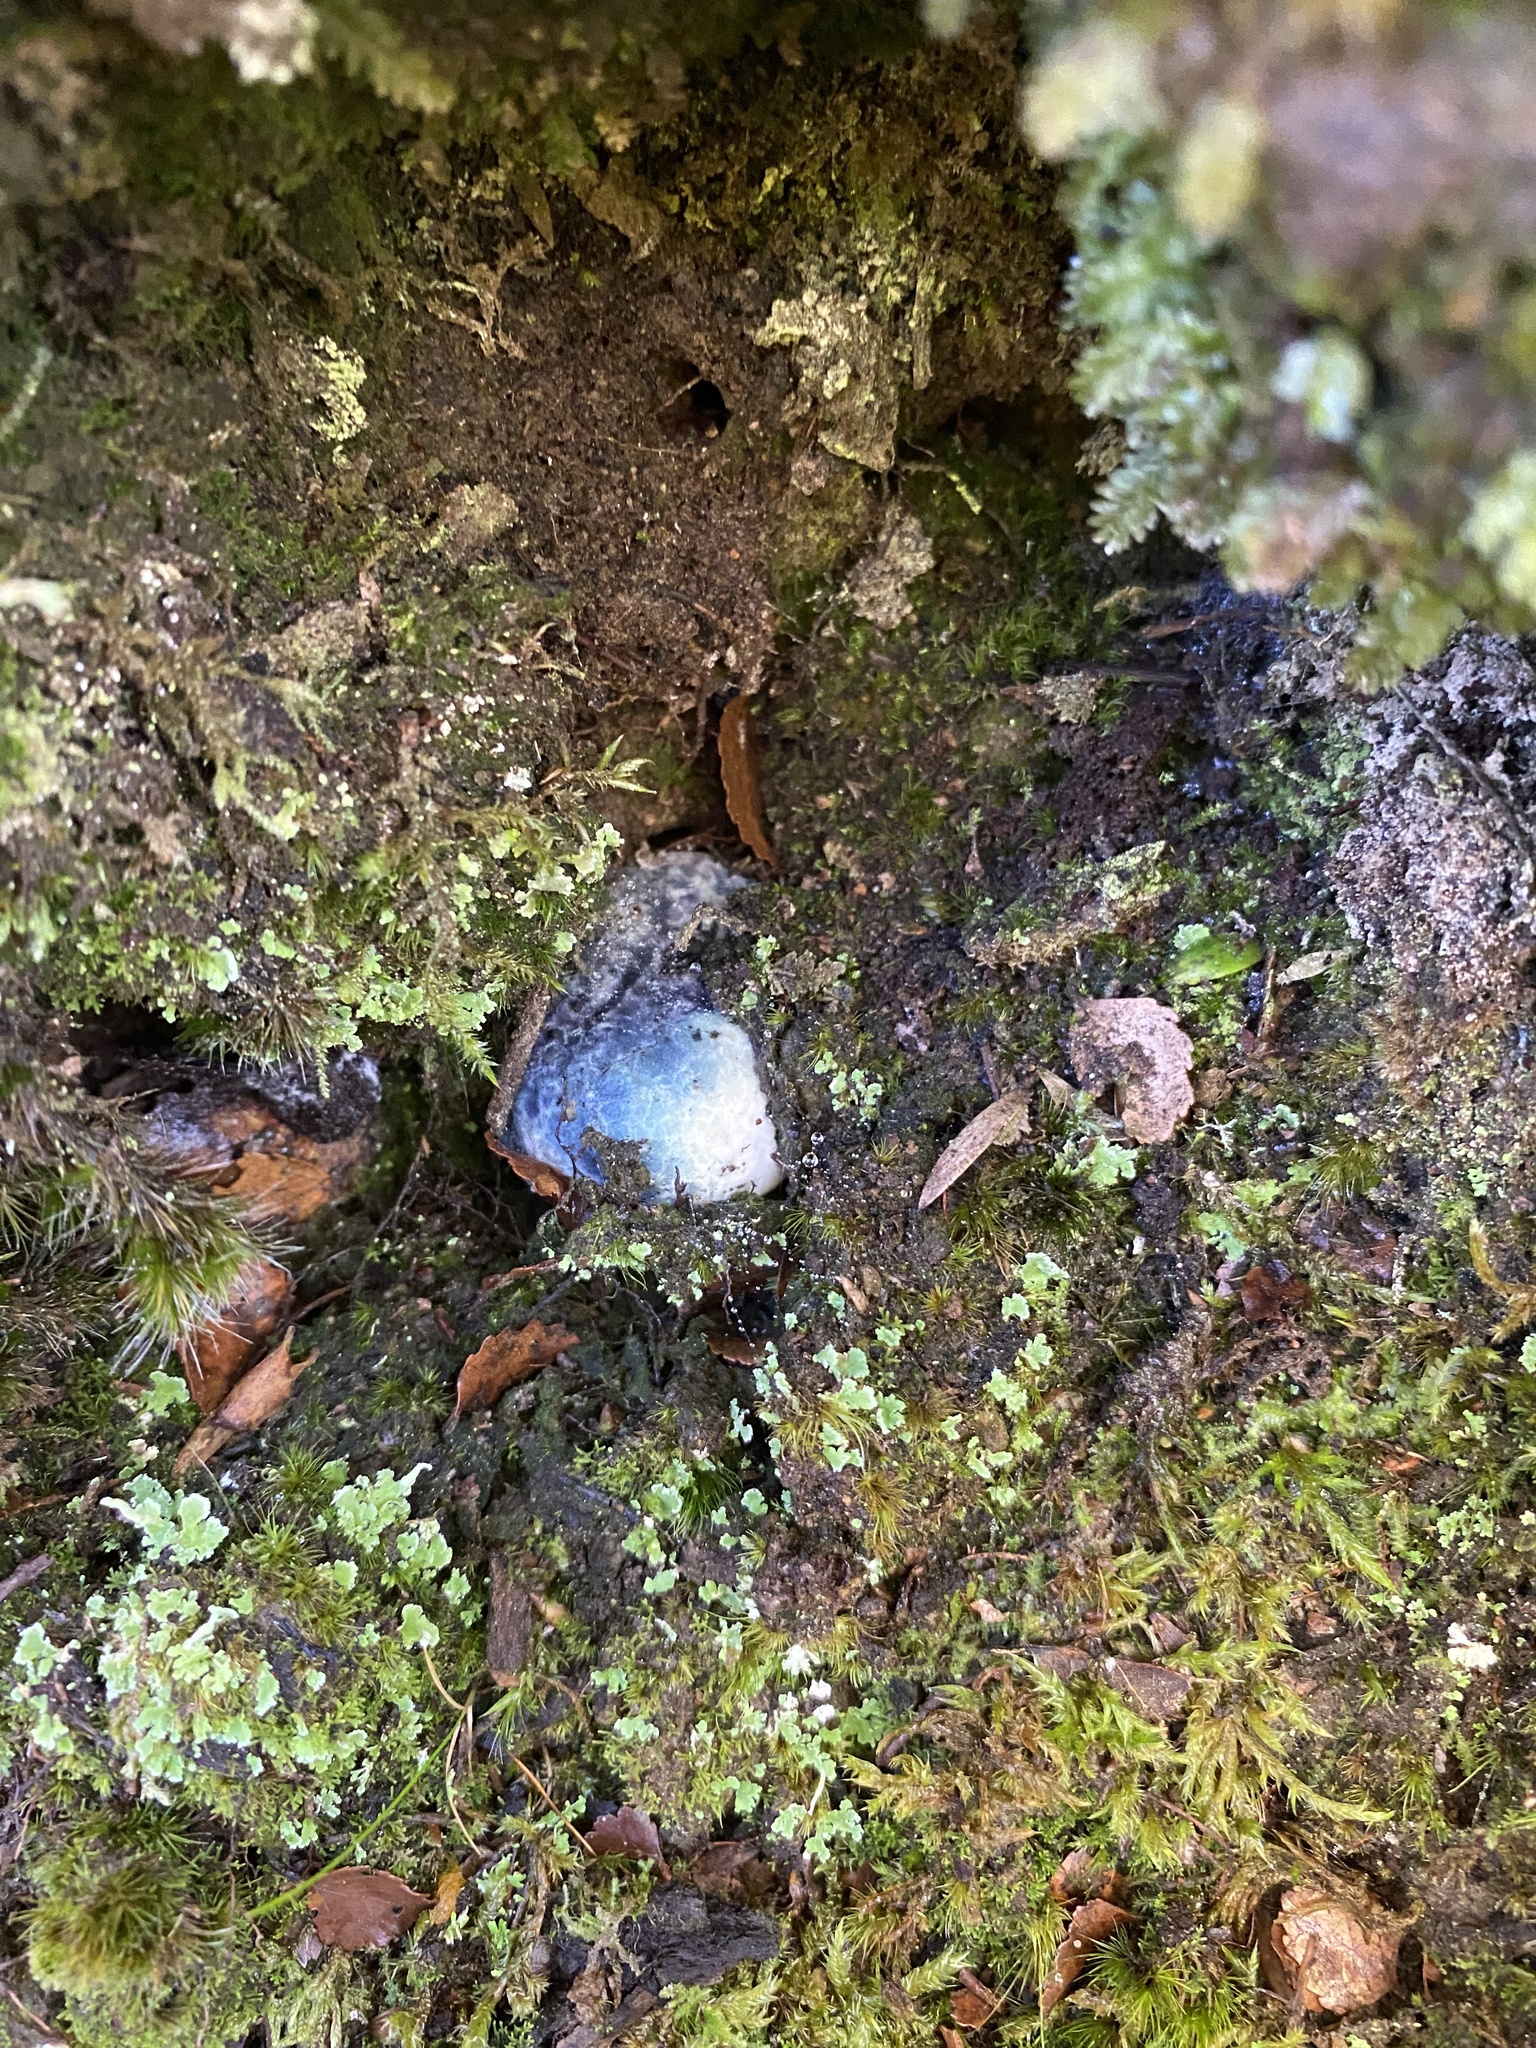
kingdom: Fungi
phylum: Basidiomycota
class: Agaricomycetes
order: Boletales
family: Boletaceae
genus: Leccinum
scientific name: Leccinum pachyderme
